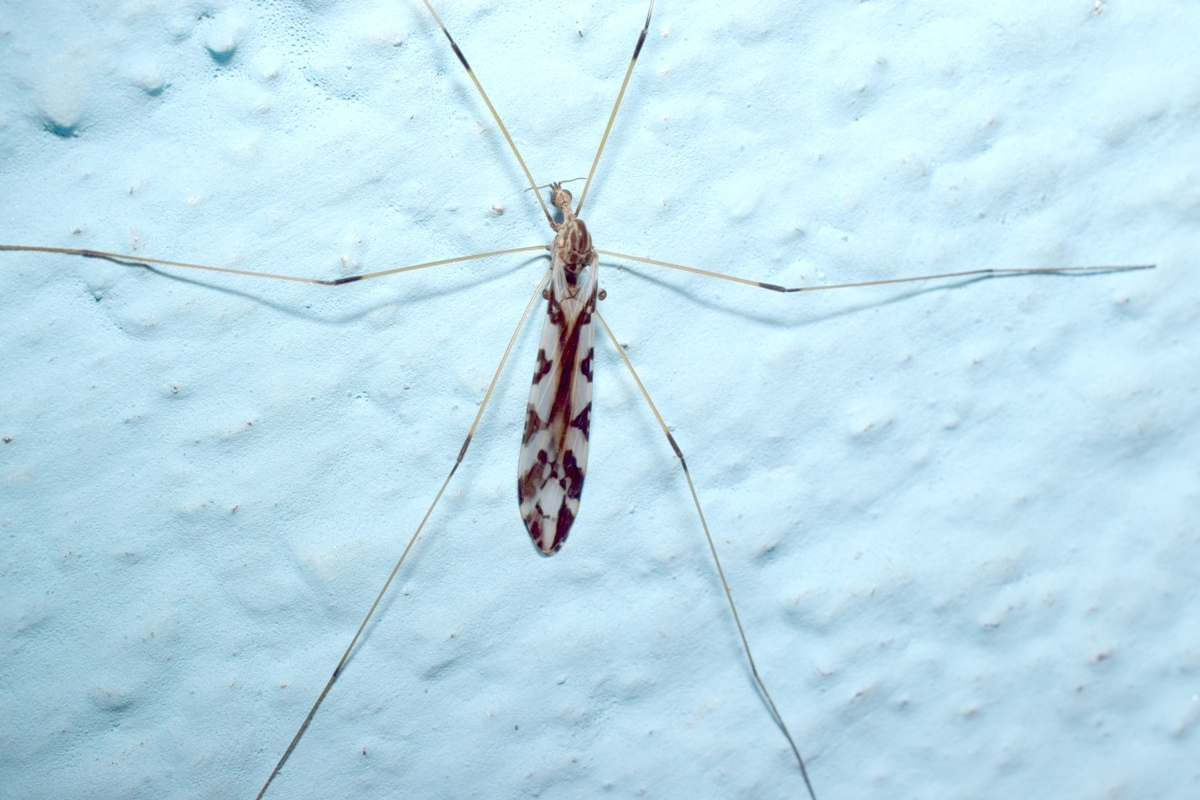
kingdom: Animalia
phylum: Arthropoda
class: Insecta
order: Diptera
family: Limoniidae
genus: Dicranomyia
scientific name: Dicranomyia pulchripennis
